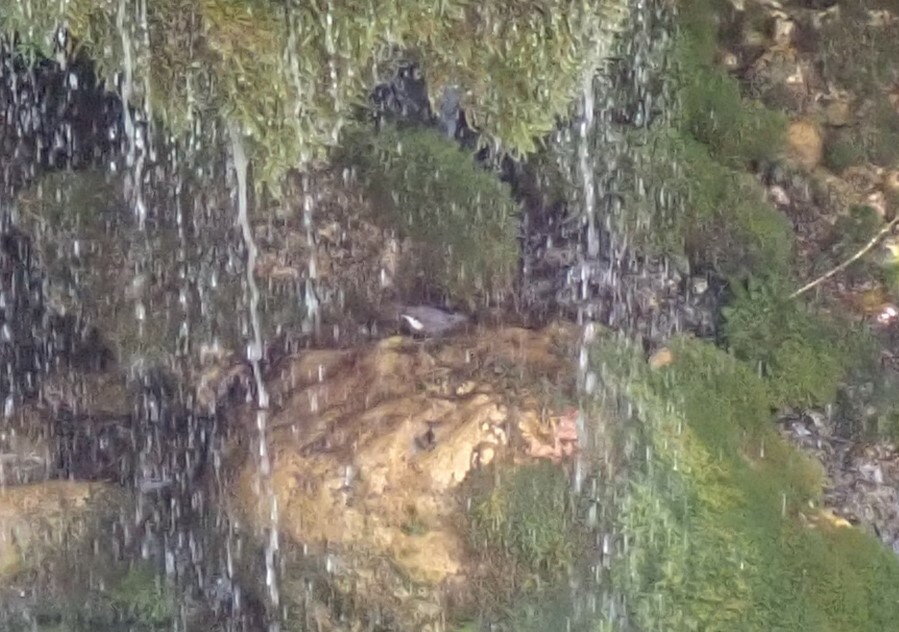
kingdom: Animalia
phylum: Chordata
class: Aves
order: Passeriformes
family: Cinclidae
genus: Cinclus
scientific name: Cinclus cinclus
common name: White-throated dipper
